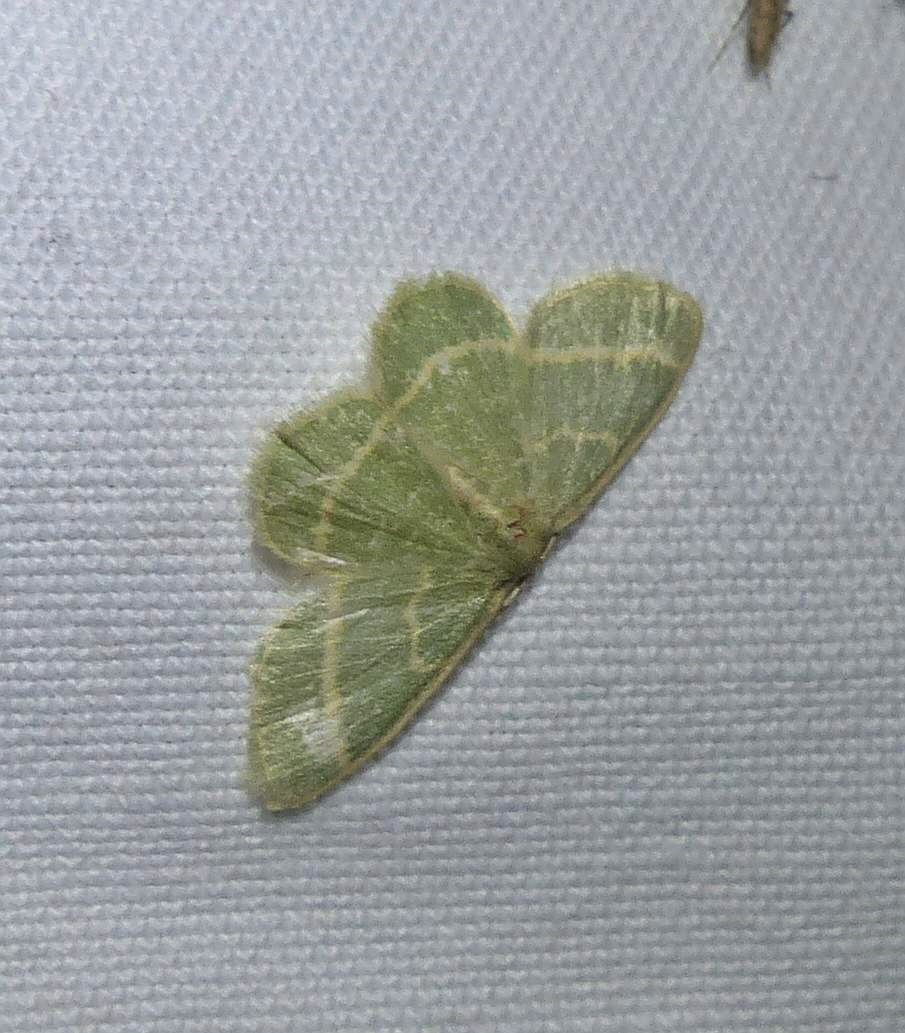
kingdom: Animalia
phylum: Arthropoda
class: Insecta
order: Lepidoptera
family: Geometridae
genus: Chlorochlamys
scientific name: Chlorochlamys chloroleucaria
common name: Blackberry looper
